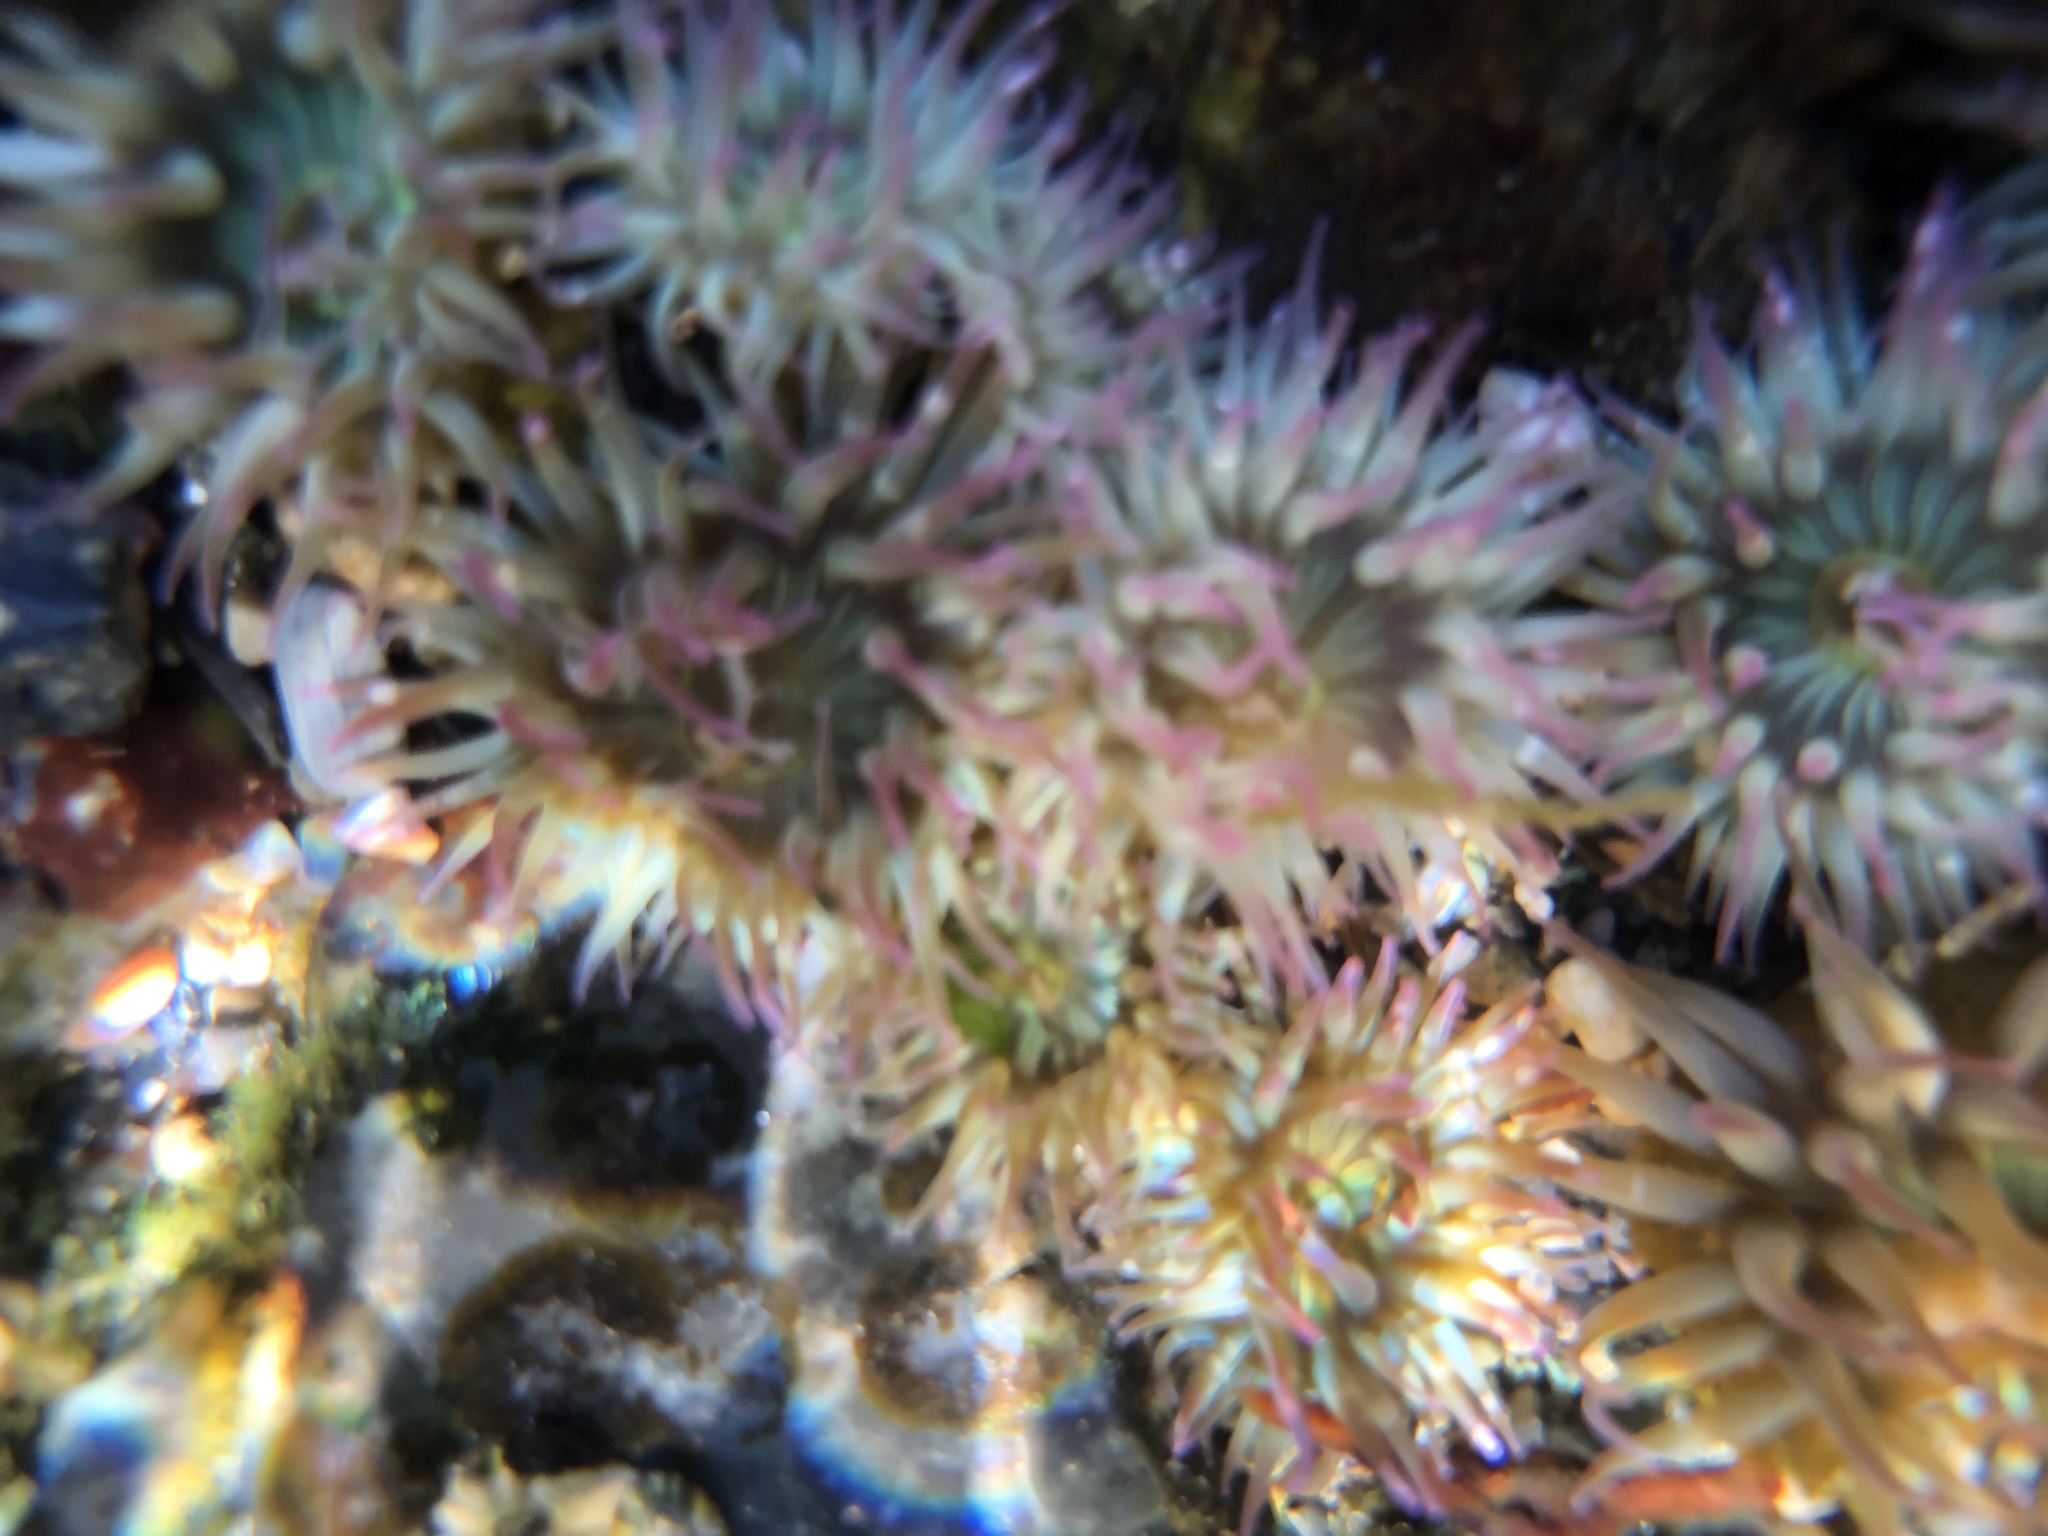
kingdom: Animalia
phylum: Cnidaria
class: Anthozoa
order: Actiniaria
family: Actiniidae
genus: Anthopleura
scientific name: Anthopleura elegantissima
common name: Clonal anemone
